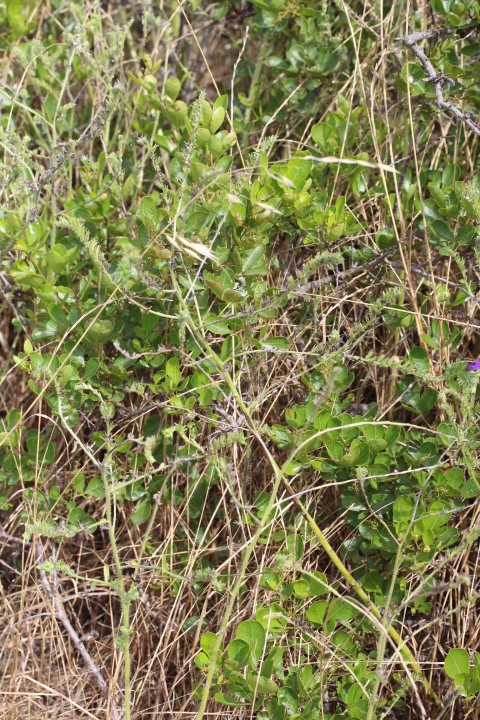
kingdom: Plantae
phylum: Tracheophyta
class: Magnoliopsida
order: Boraginales
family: Boraginaceae
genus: Echium
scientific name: Echium plantagineum
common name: Purple viper's-bugloss
